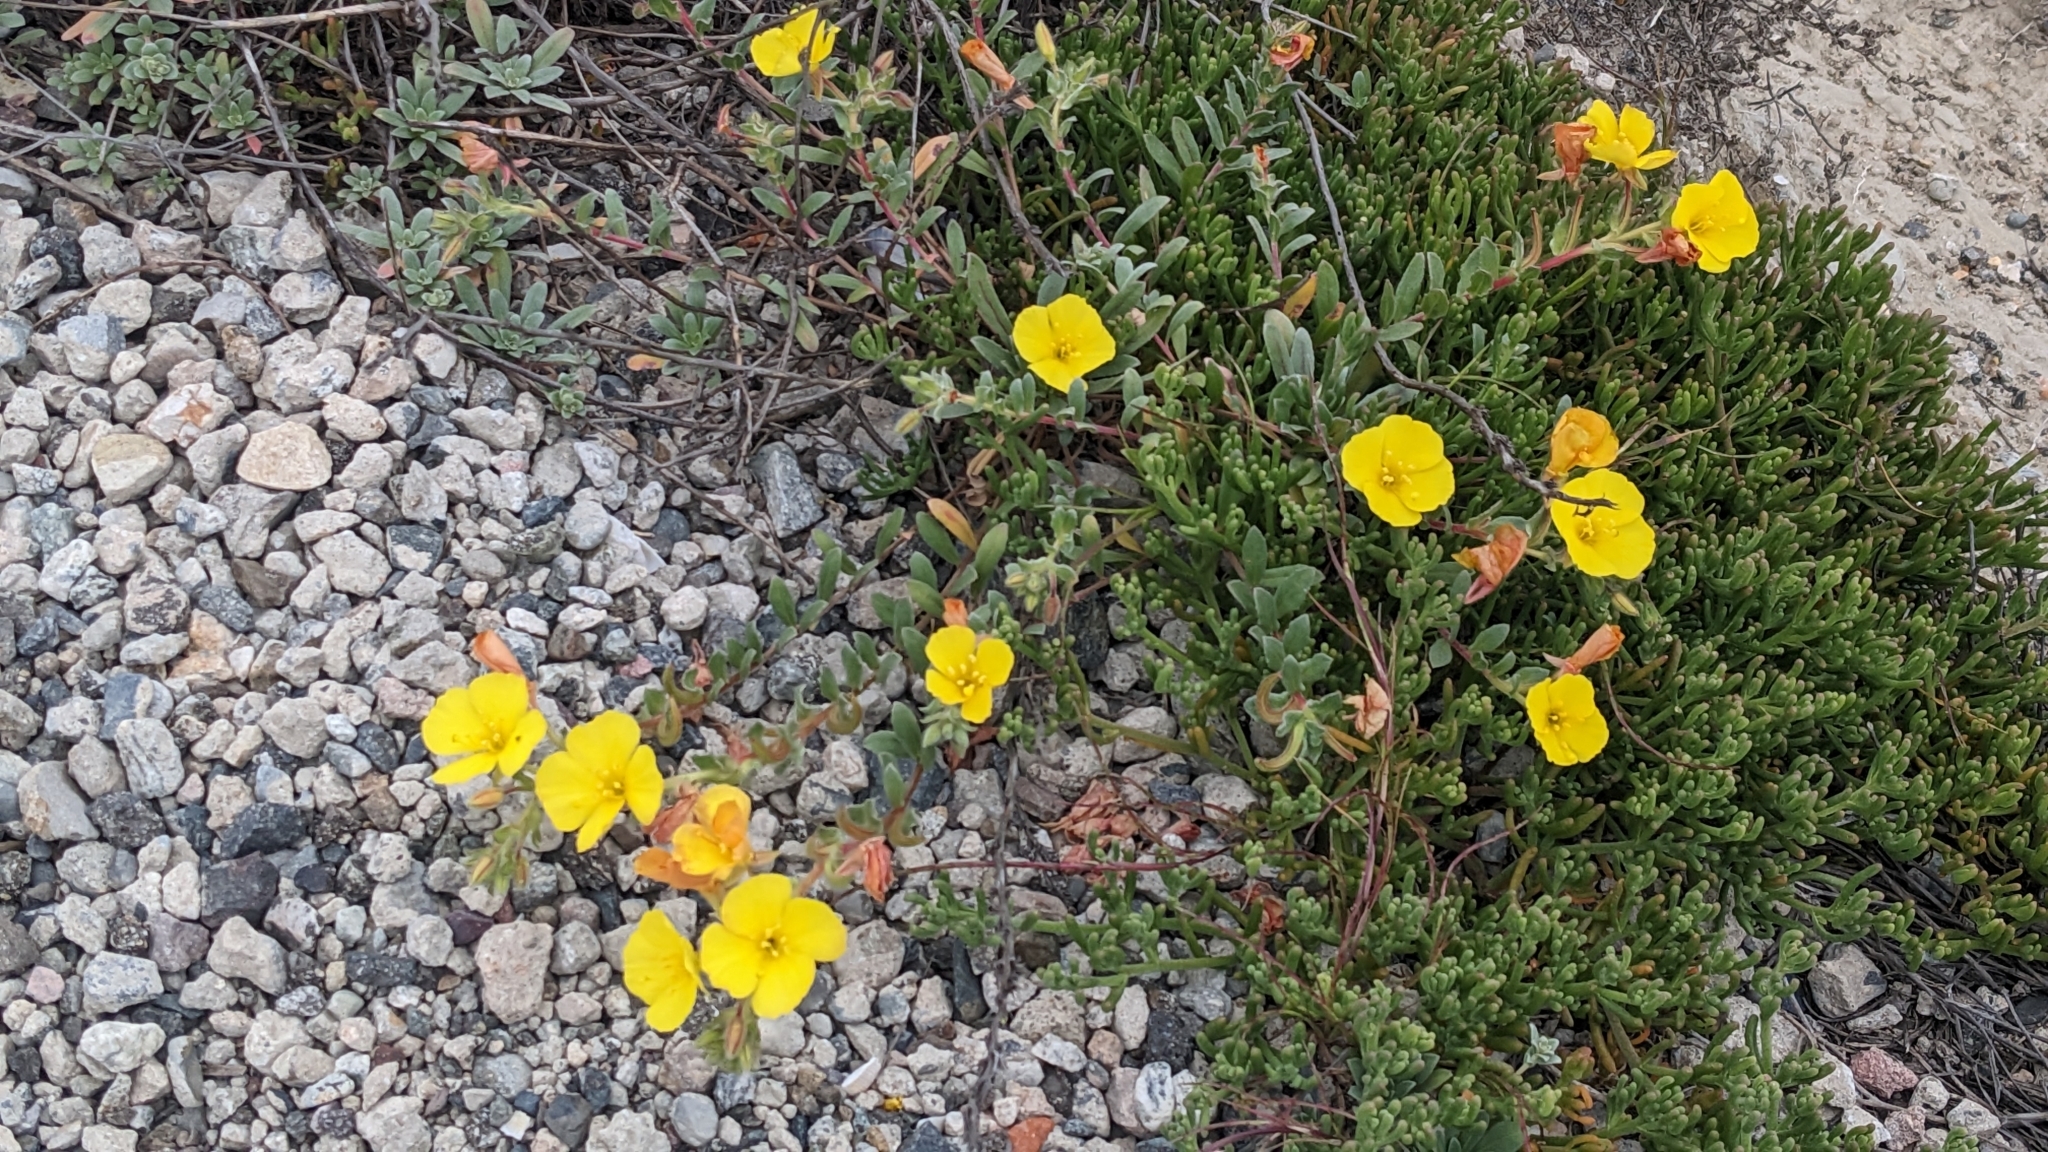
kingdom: Plantae
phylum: Tracheophyta
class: Magnoliopsida
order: Myrtales
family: Onagraceae
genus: Camissoniopsis
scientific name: Camissoniopsis cheiranthifolia
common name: Beach suncup
